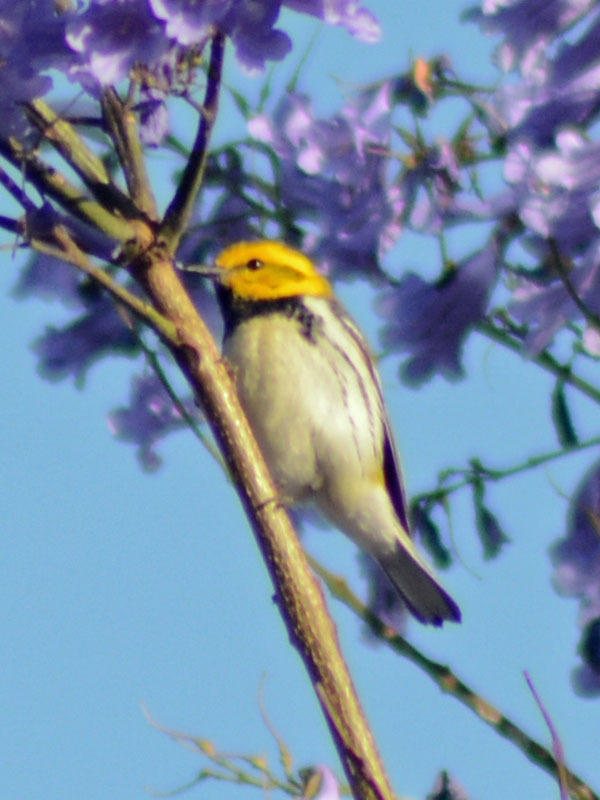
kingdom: Animalia
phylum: Chordata
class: Aves
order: Passeriformes
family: Parulidae
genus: Setophaga
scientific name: Setophaga virens
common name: Black-throated green warbler
